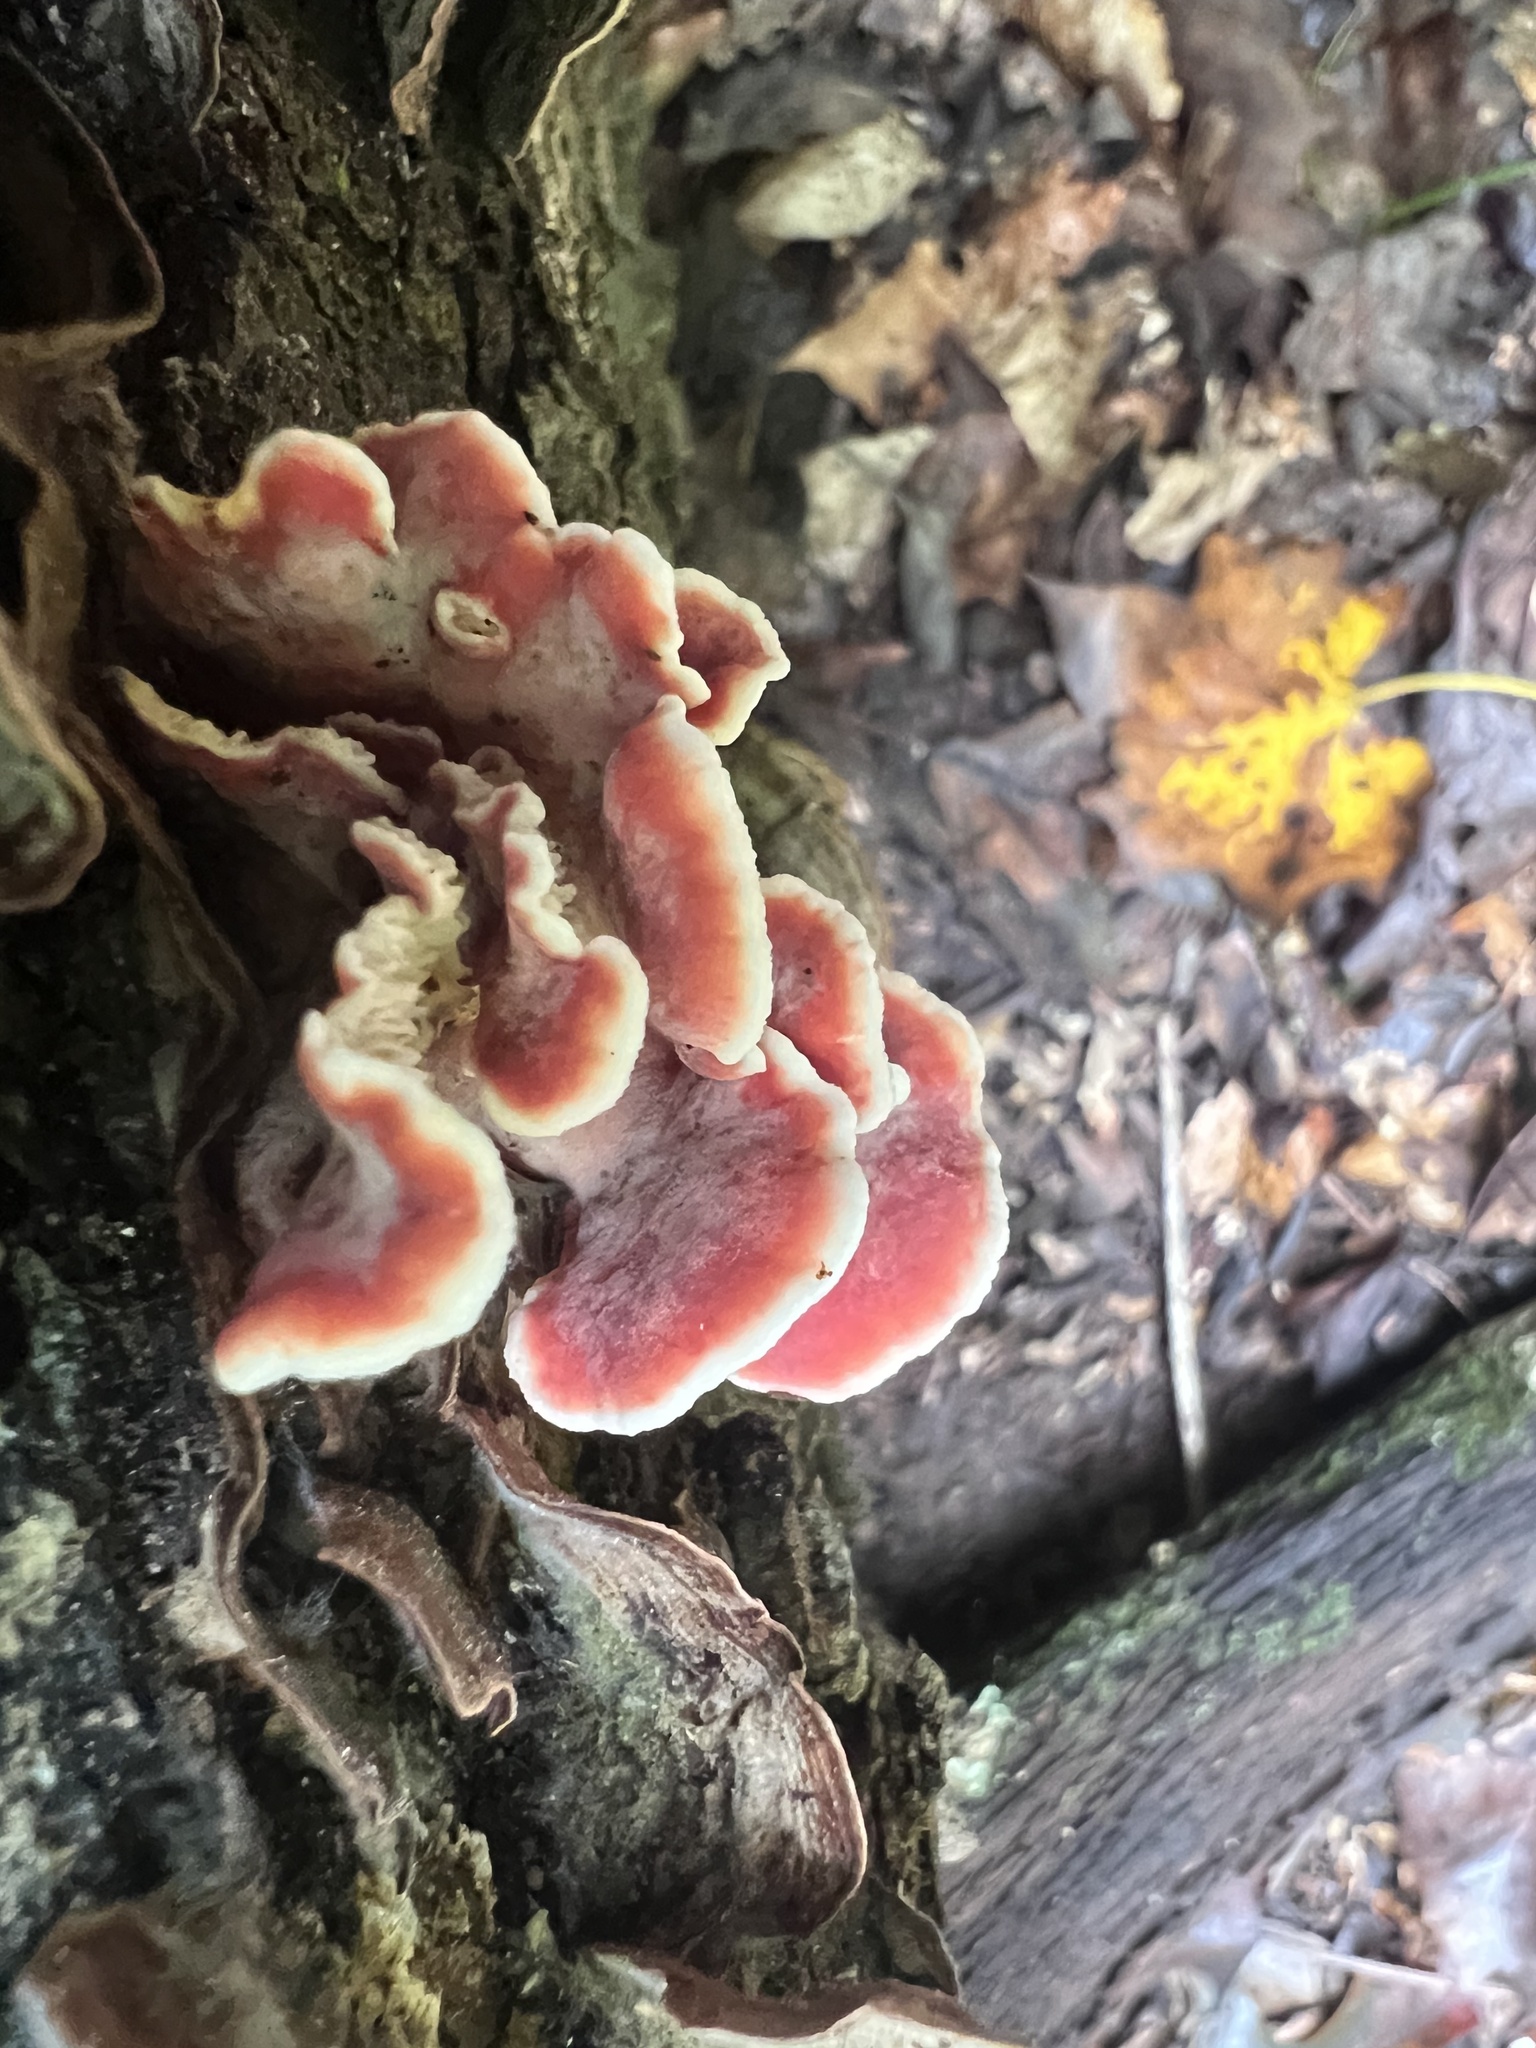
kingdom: Fungi
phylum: Basidiomycota
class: Agaricomycetes
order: Polyporales
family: Irpicaceae
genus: Byssomerulius
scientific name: Byssomerulius incarnatus
